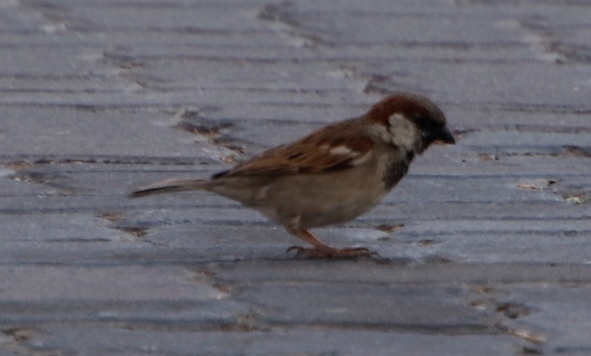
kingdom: Animalia
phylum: Chordata
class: Aves
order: Passeriformes
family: Passeridae
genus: Passer
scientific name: Passer domesticus
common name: House sparrow
